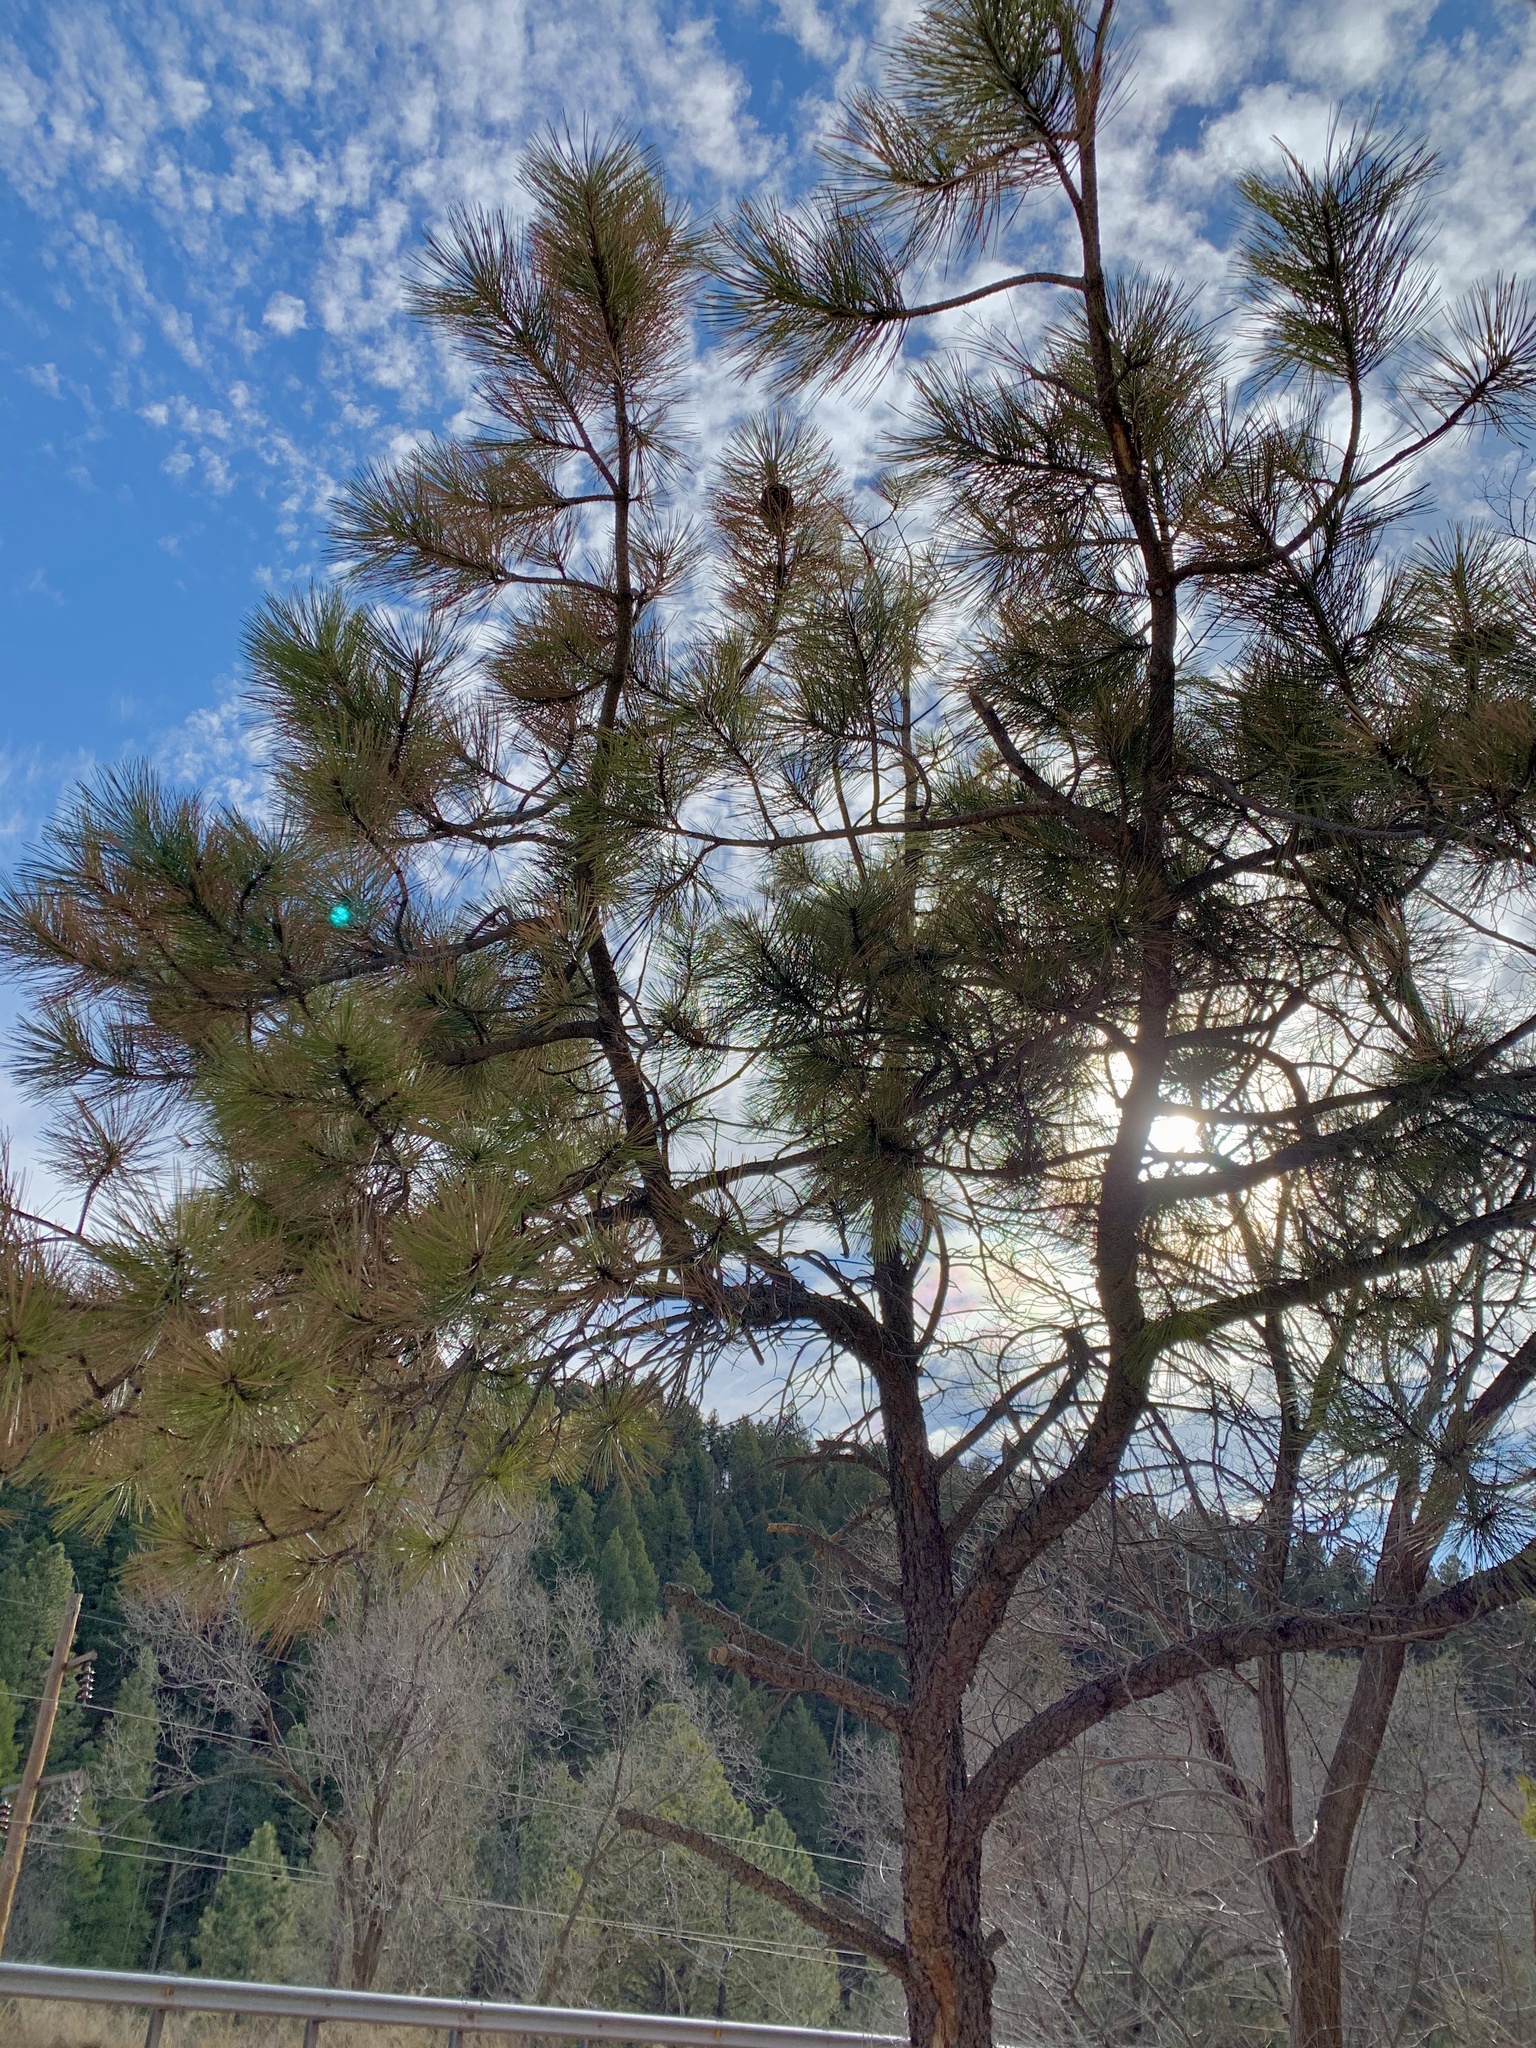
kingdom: Plantae
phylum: Tracheophyta
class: Pinopsida
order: Pinales
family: Pinaceae
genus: Pinus
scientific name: Pinus ponderosa
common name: Western yellow-pine
